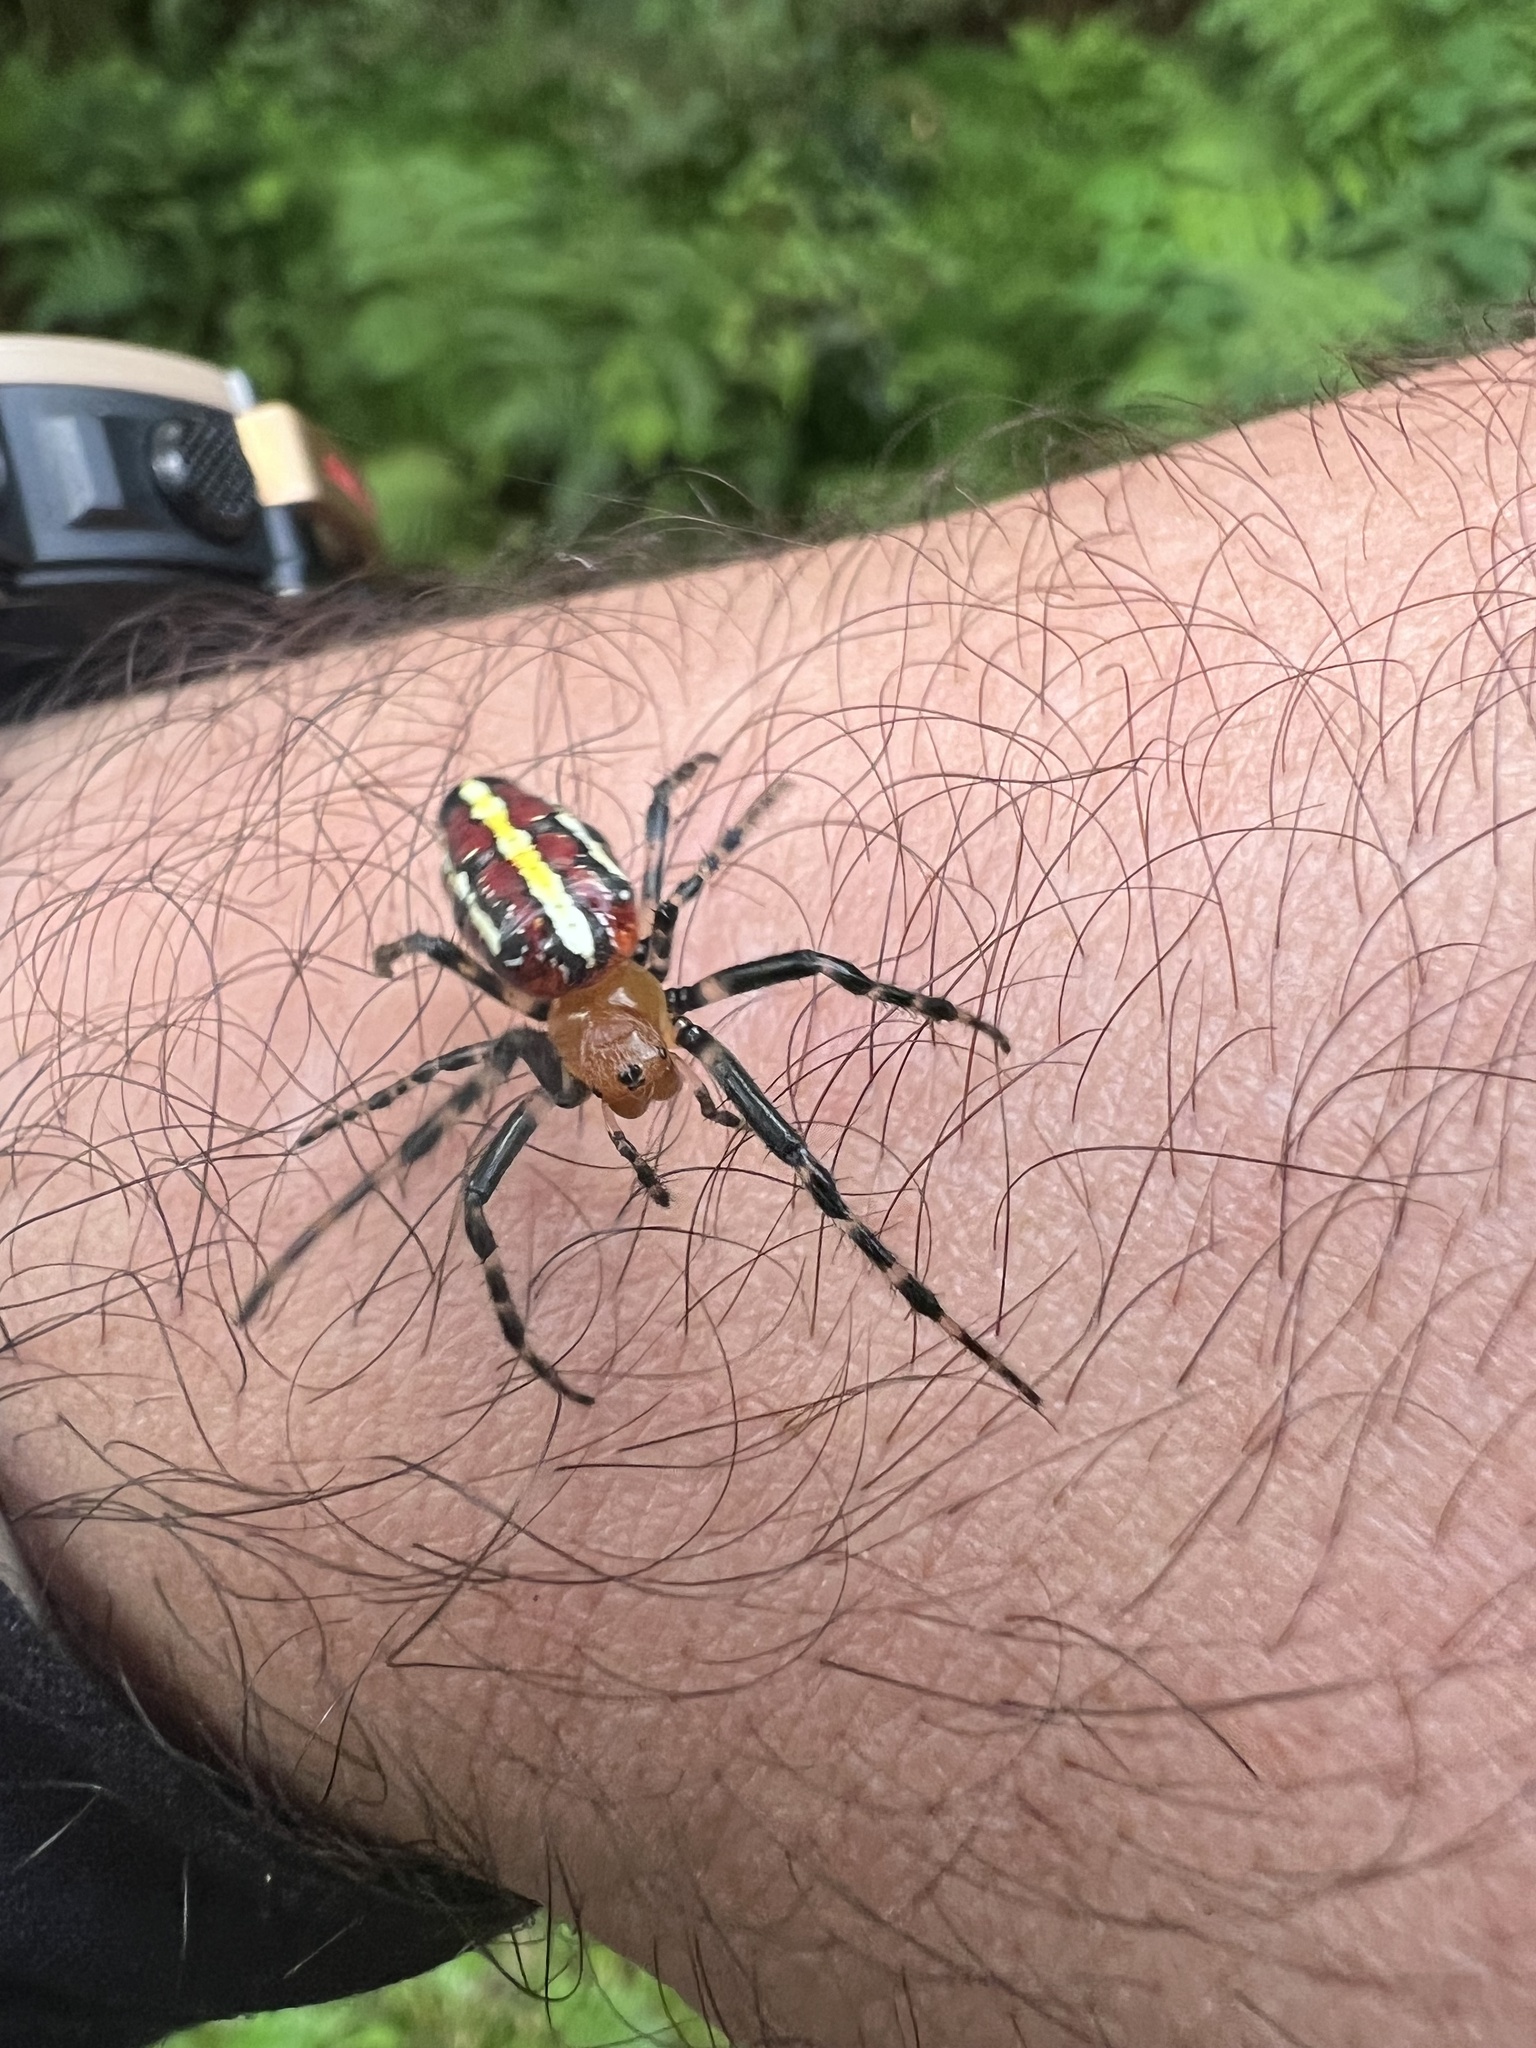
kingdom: Animalia
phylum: Arthropoda
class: Arachnida
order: Araneae
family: Araneidae
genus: Alpaida
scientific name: Alpaida grayi
